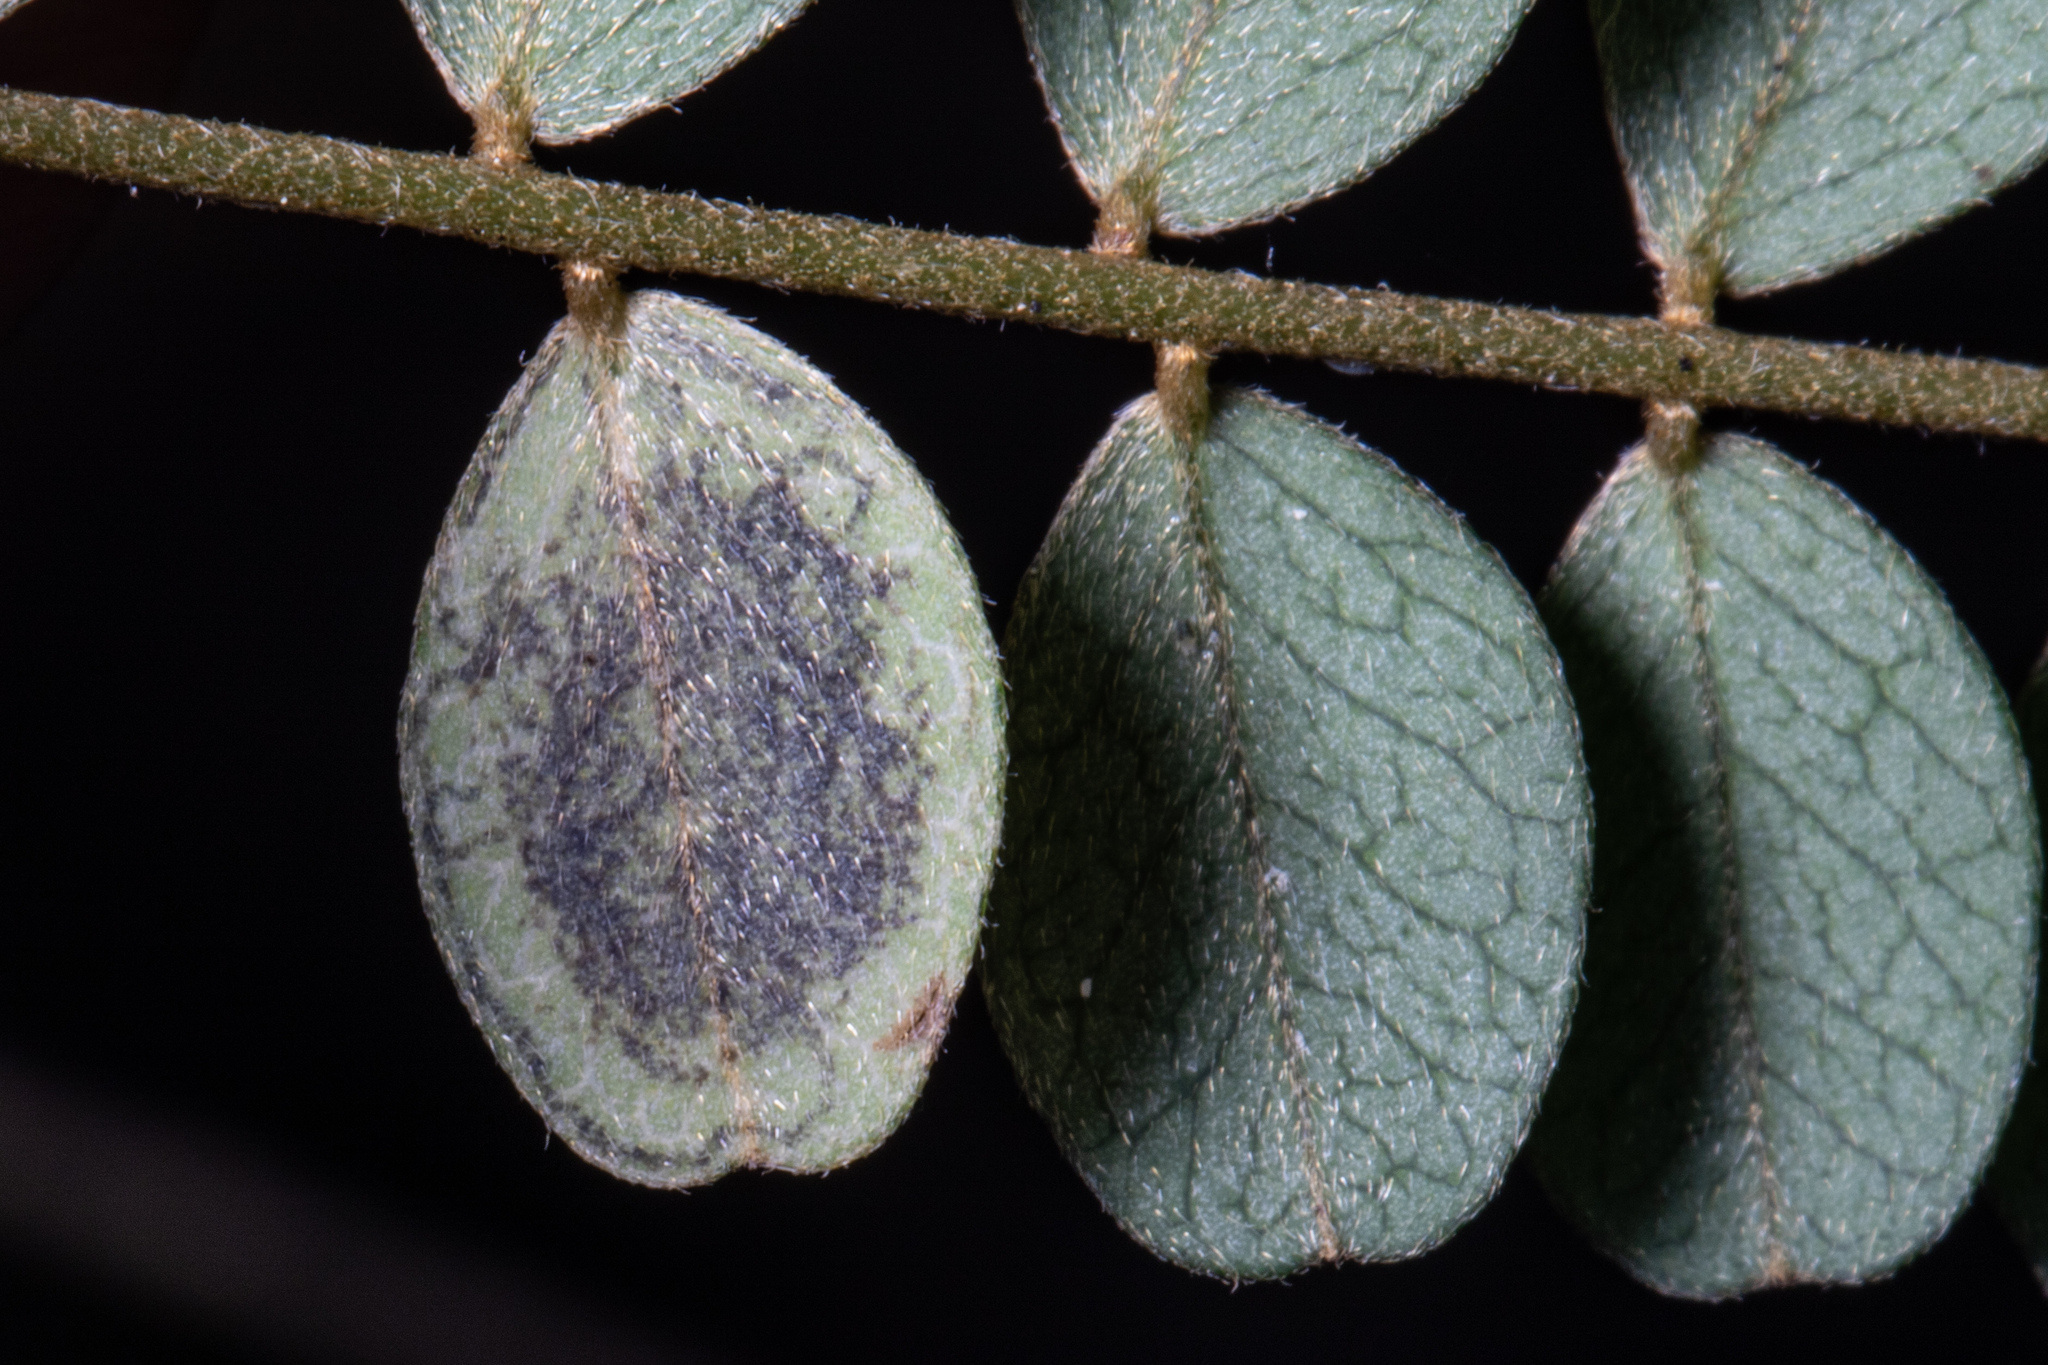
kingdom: Animalia
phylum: Arthropoda
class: Insecta
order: Lepidoptera
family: Nepticulidae
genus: Stigmella
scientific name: Stigmella sophorae
